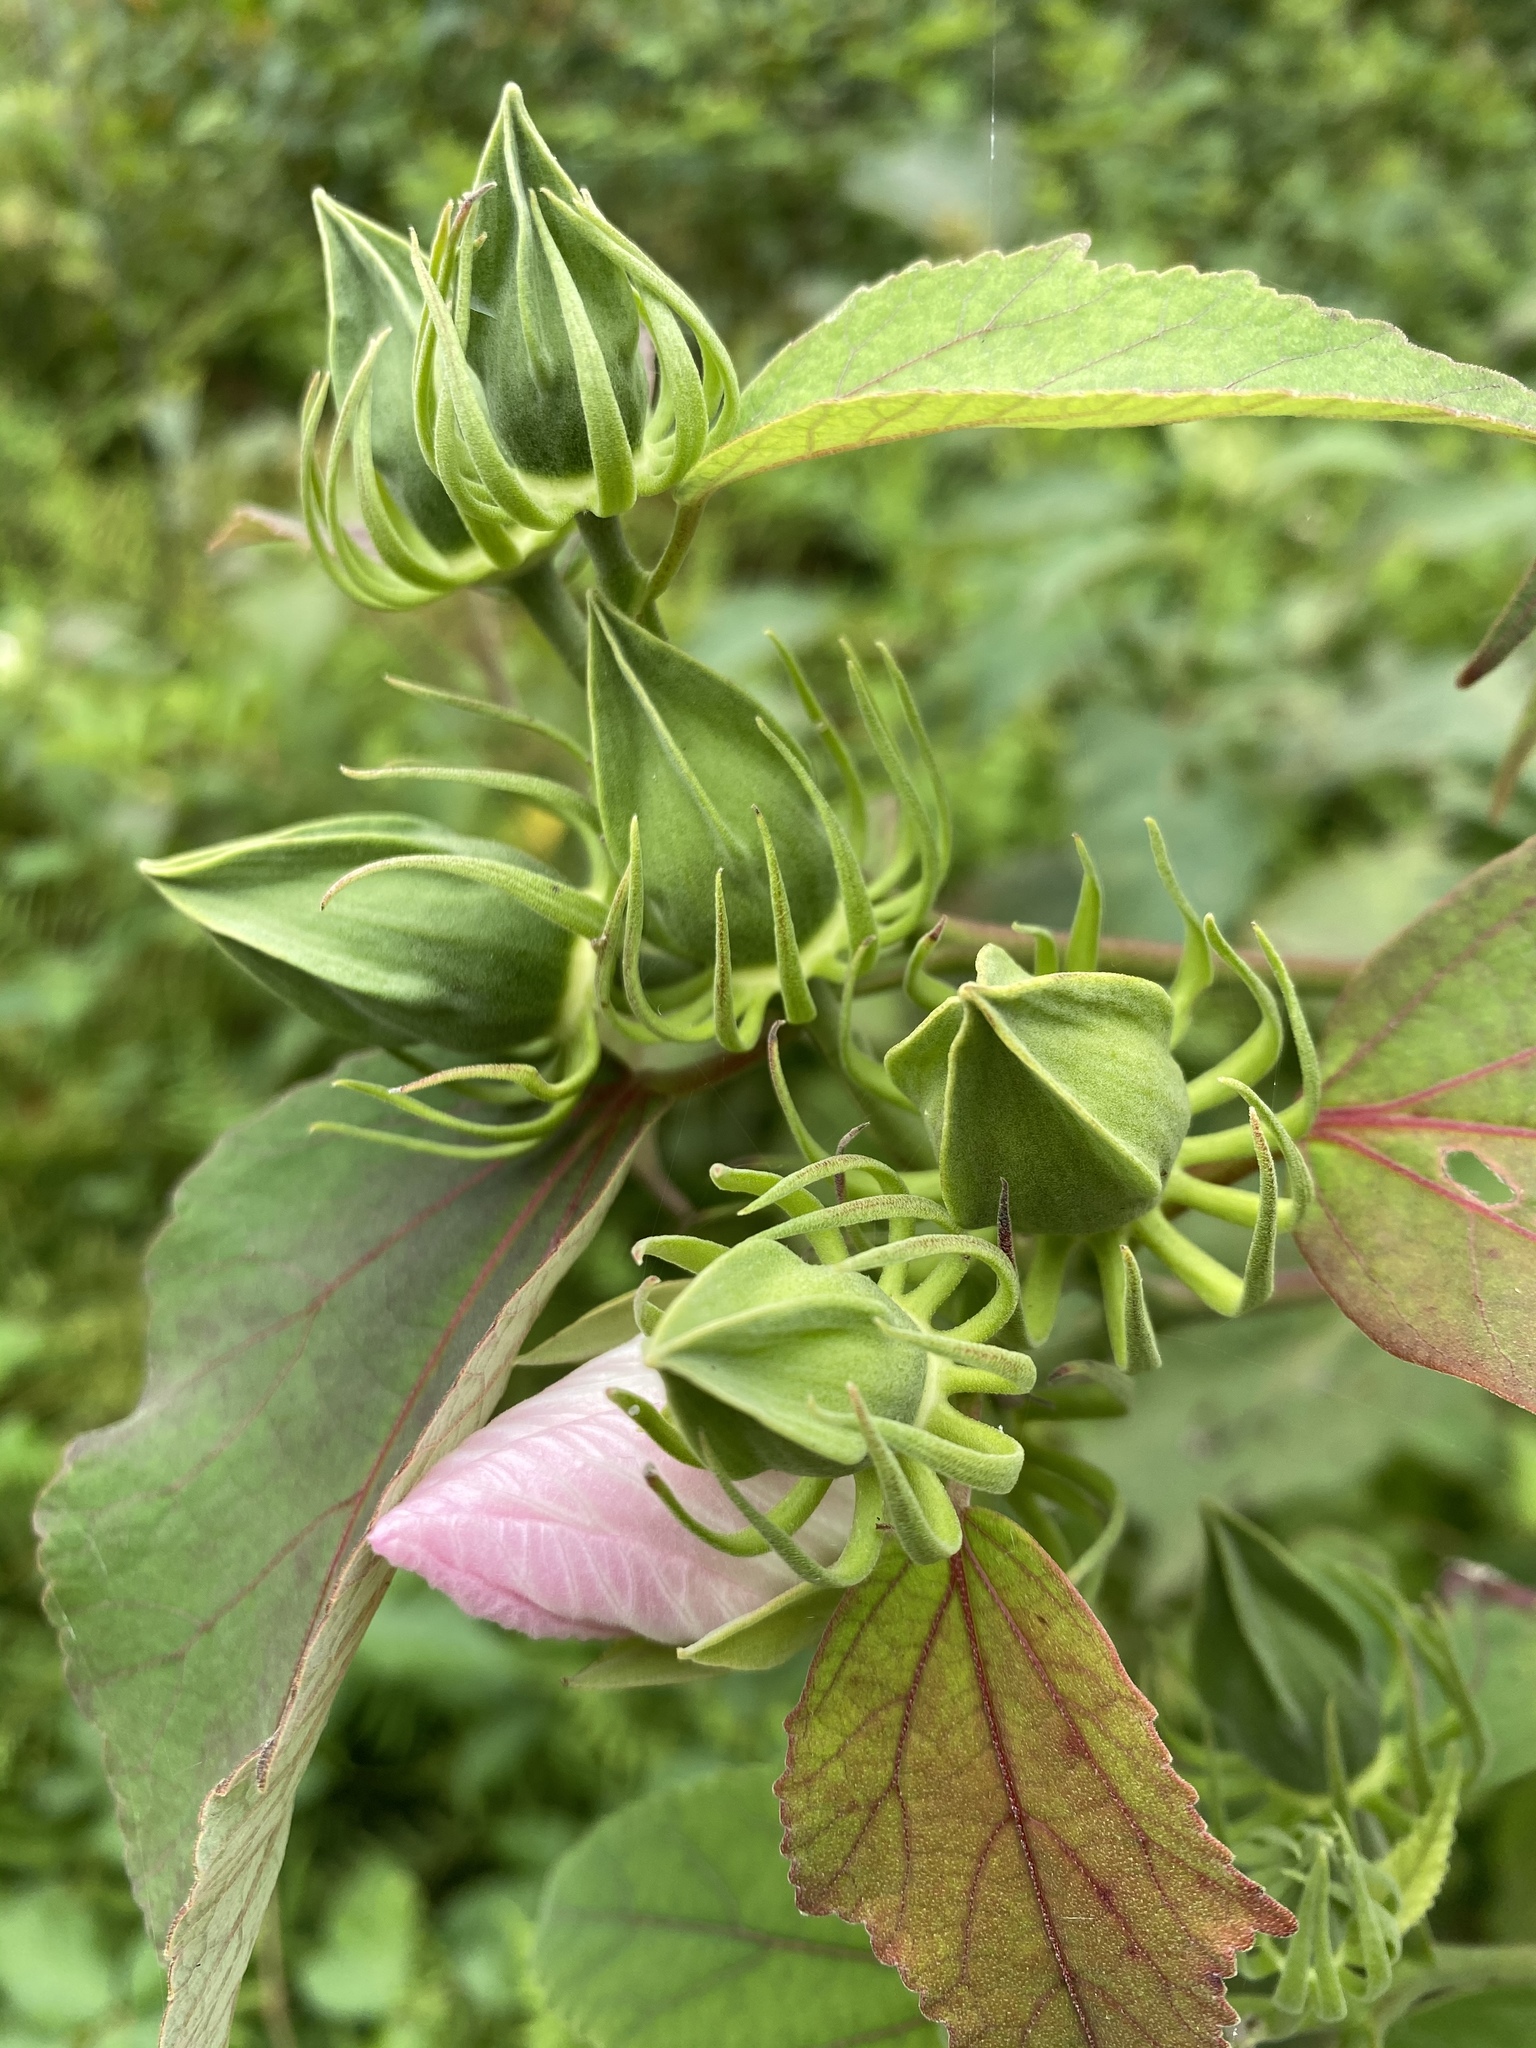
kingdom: Plantae
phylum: Tracheophyta
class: Magnoliopsida
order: Malvales
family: Malvaceae
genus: Hibiscus
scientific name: Hibiscus moscheutos
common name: Common rose-mallow
